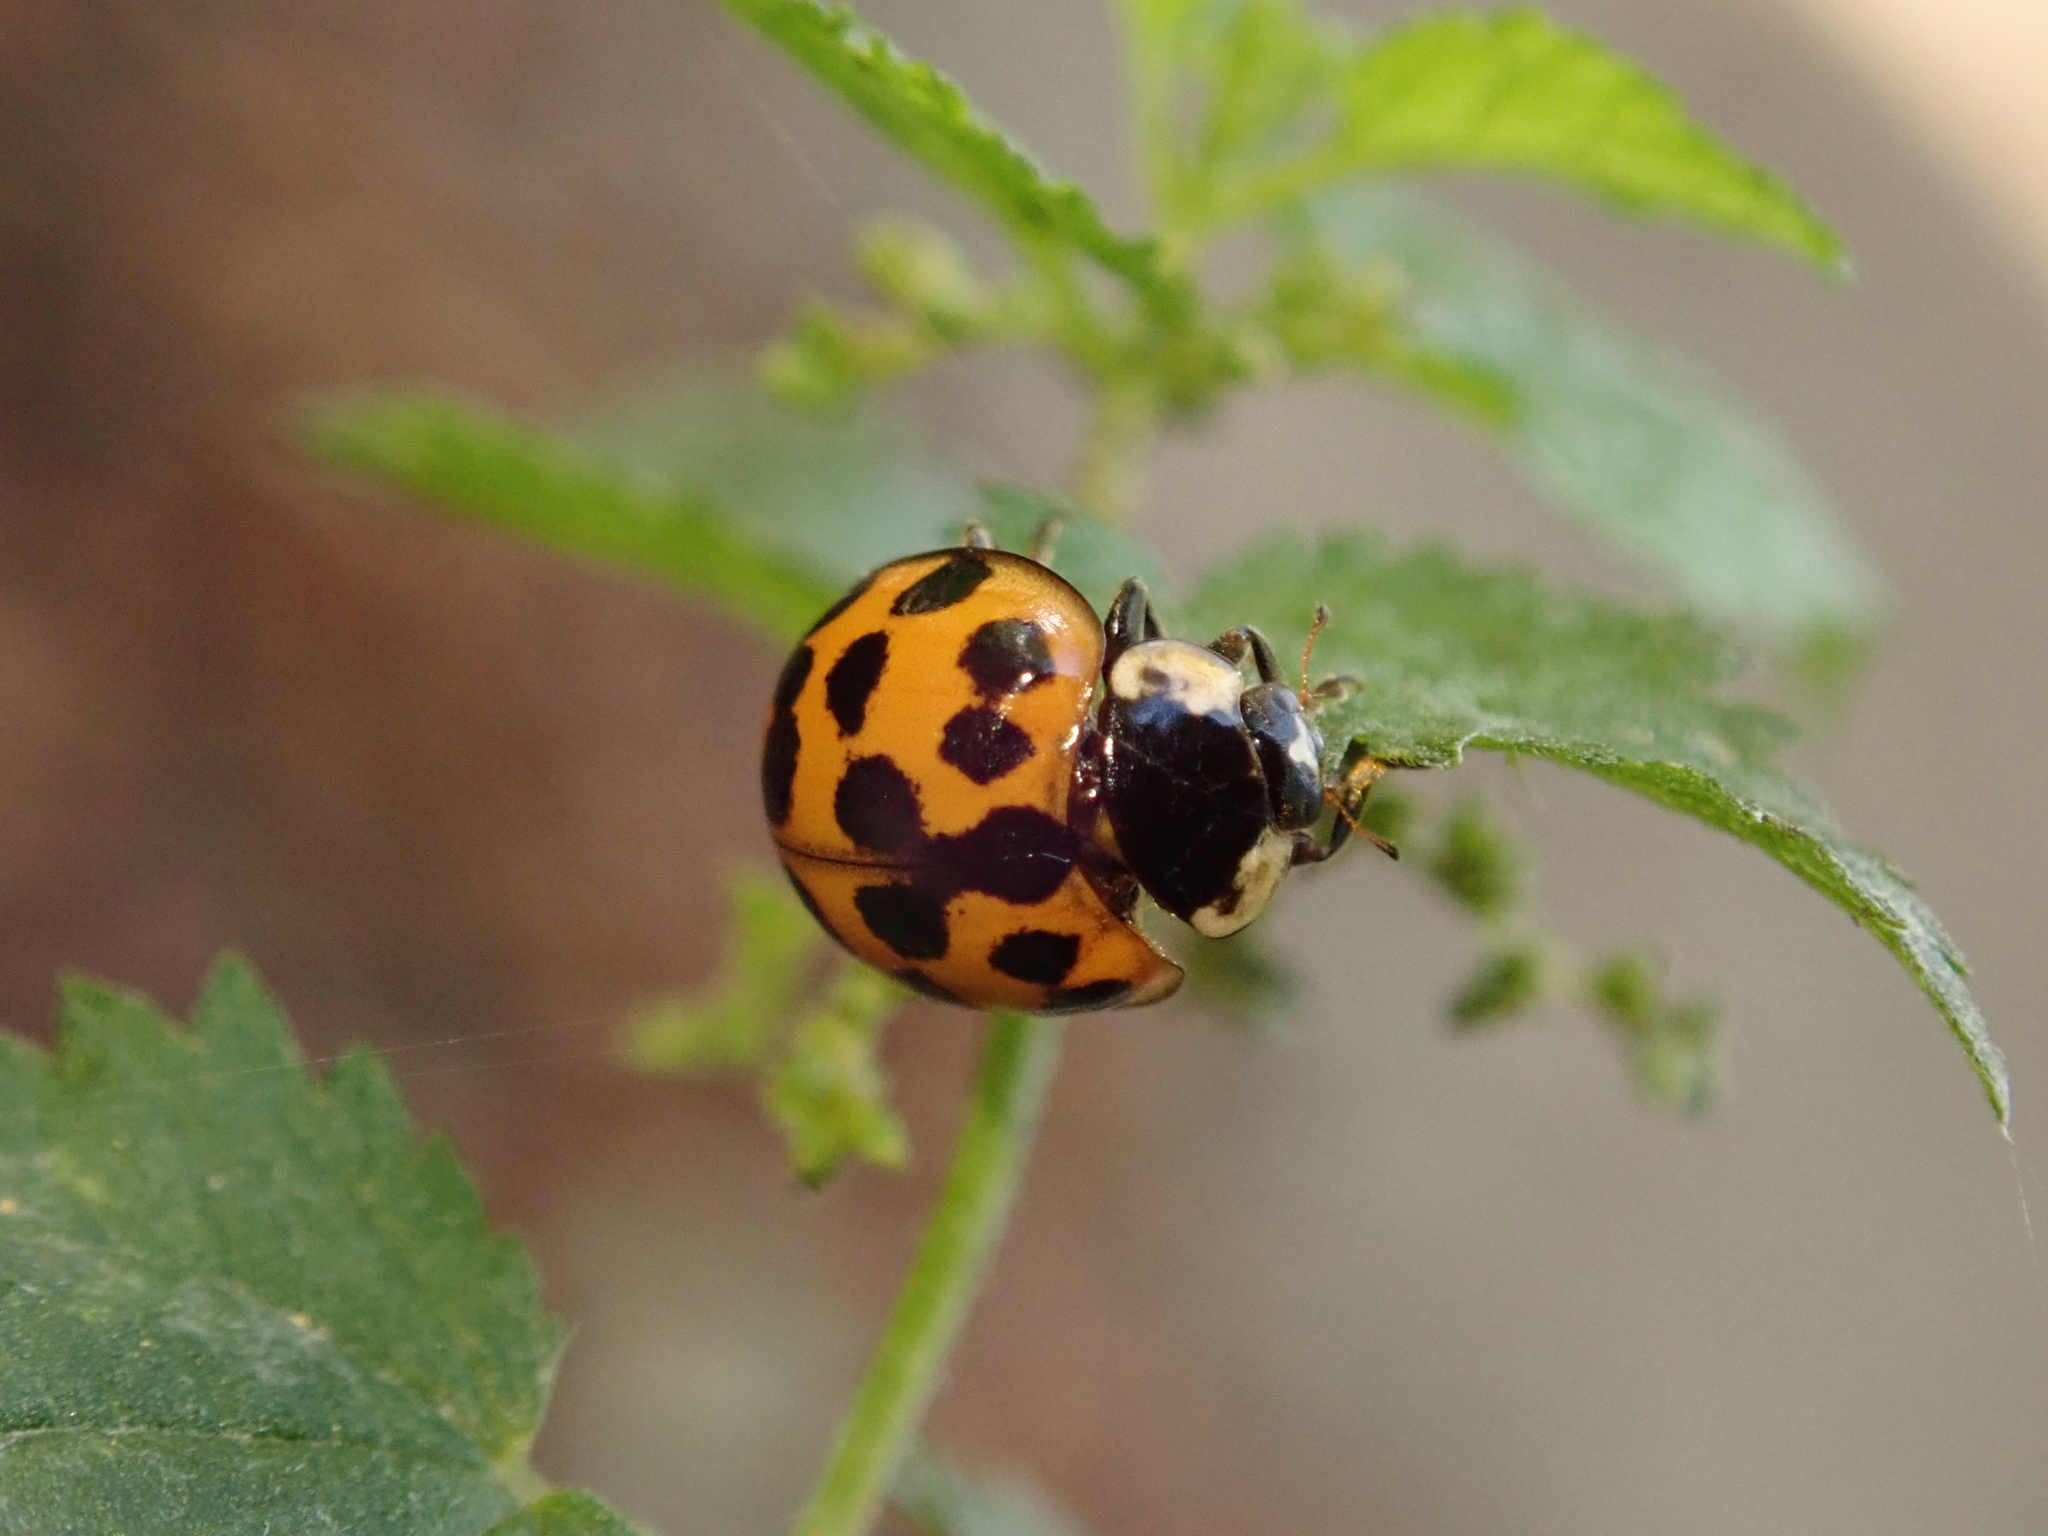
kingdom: Animalia
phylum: Arthropoda
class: Insecta
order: Coleoptera
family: Coccinellidae
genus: Harmonia
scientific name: Harmonia axyridis
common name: Harlequin ladybird
